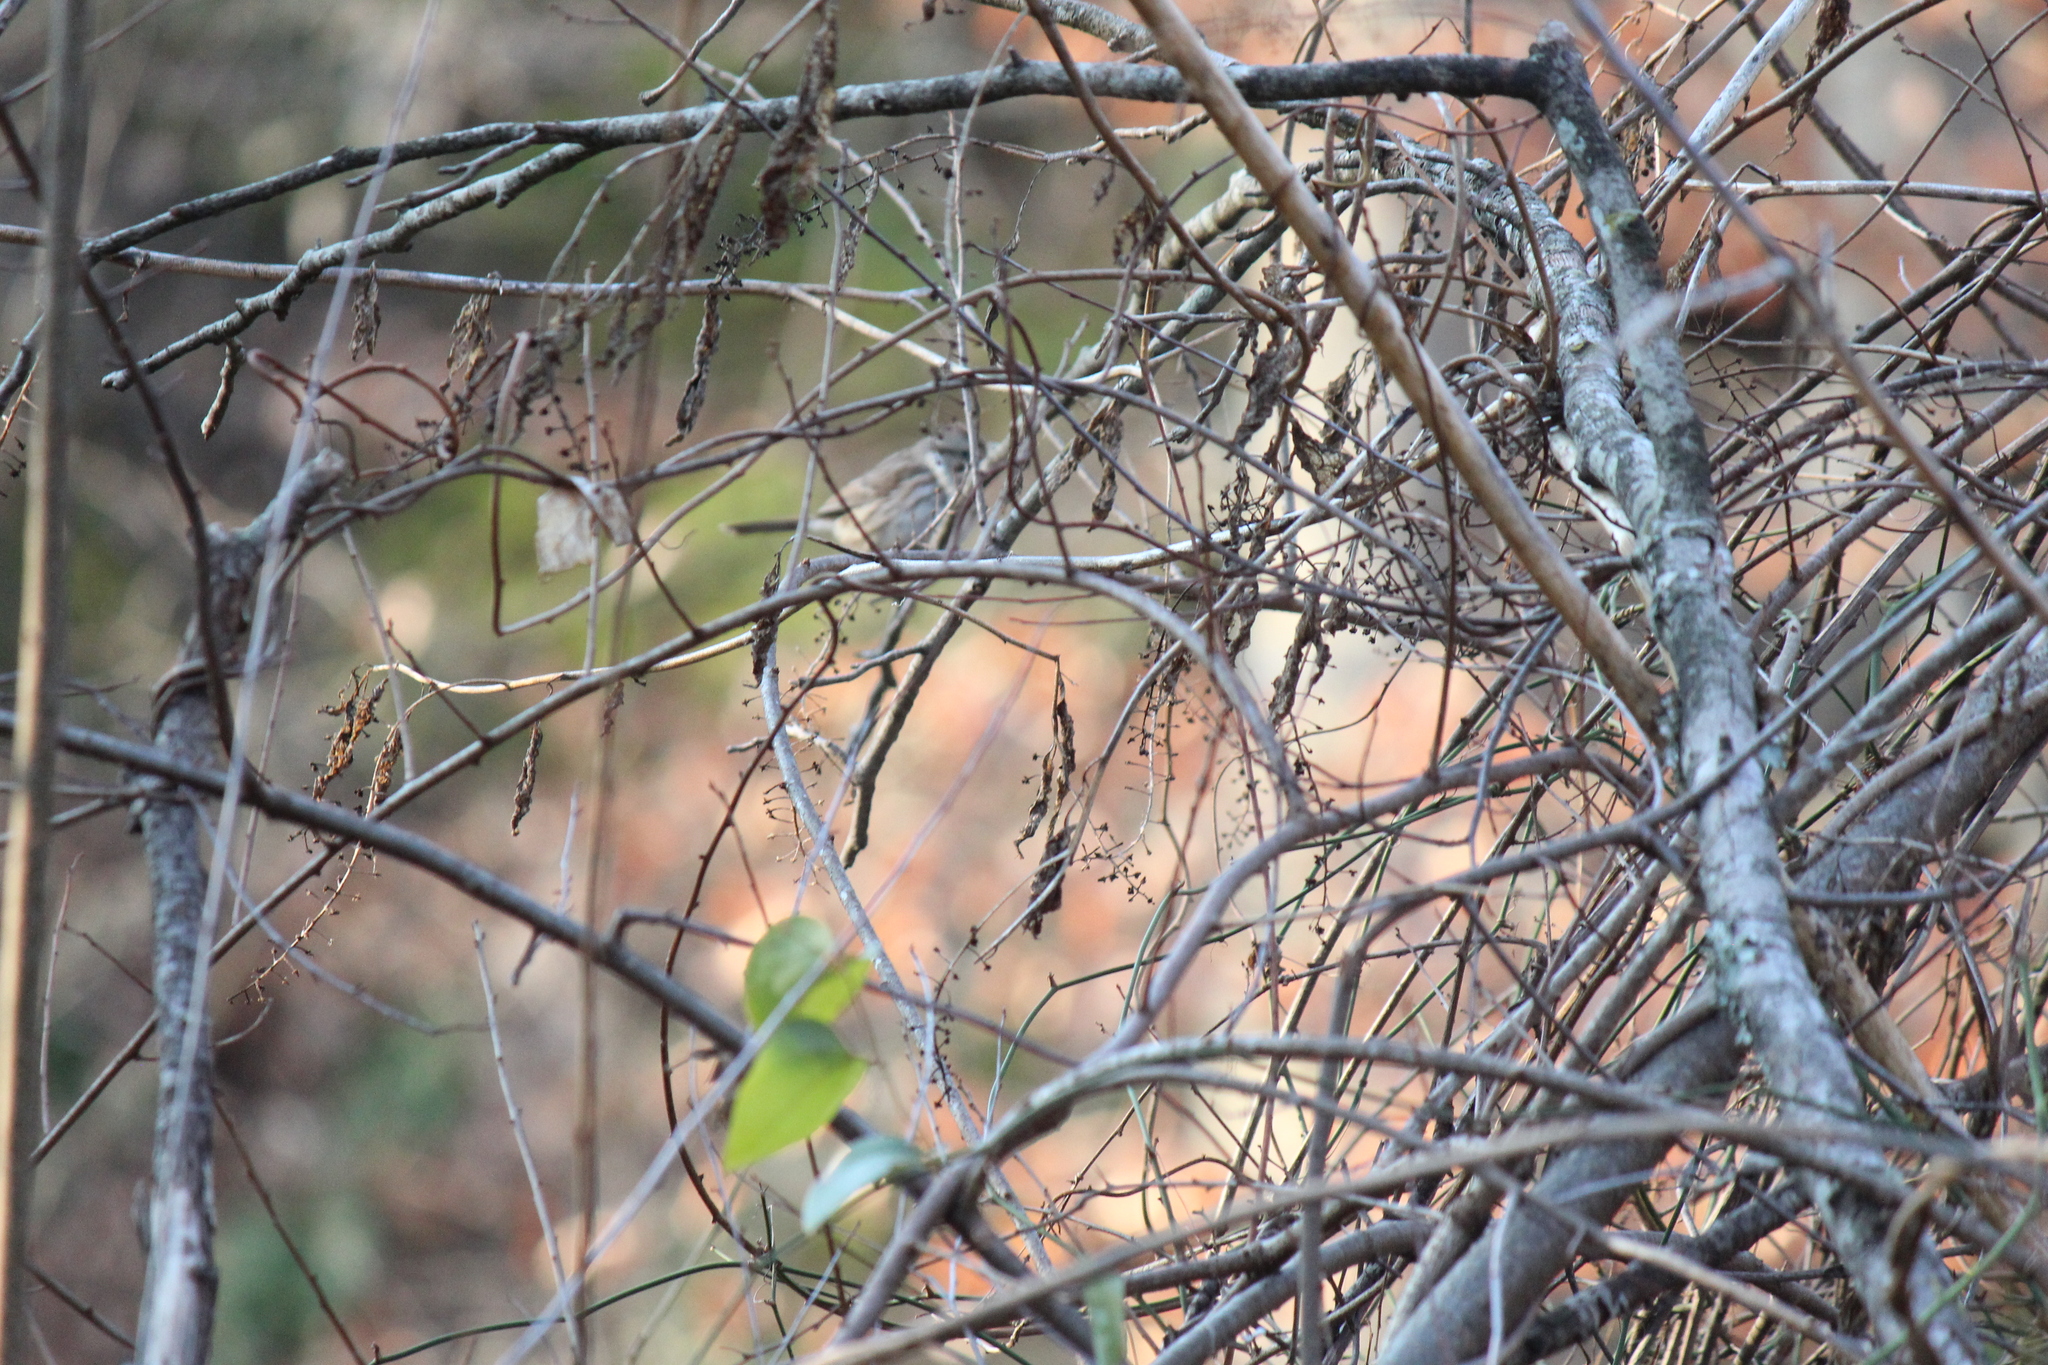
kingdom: Animalia
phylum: Chordata
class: Aves
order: Passeriformes
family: Passerellidae
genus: Melospiza
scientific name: Melospiza melodia
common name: Song sparrow
